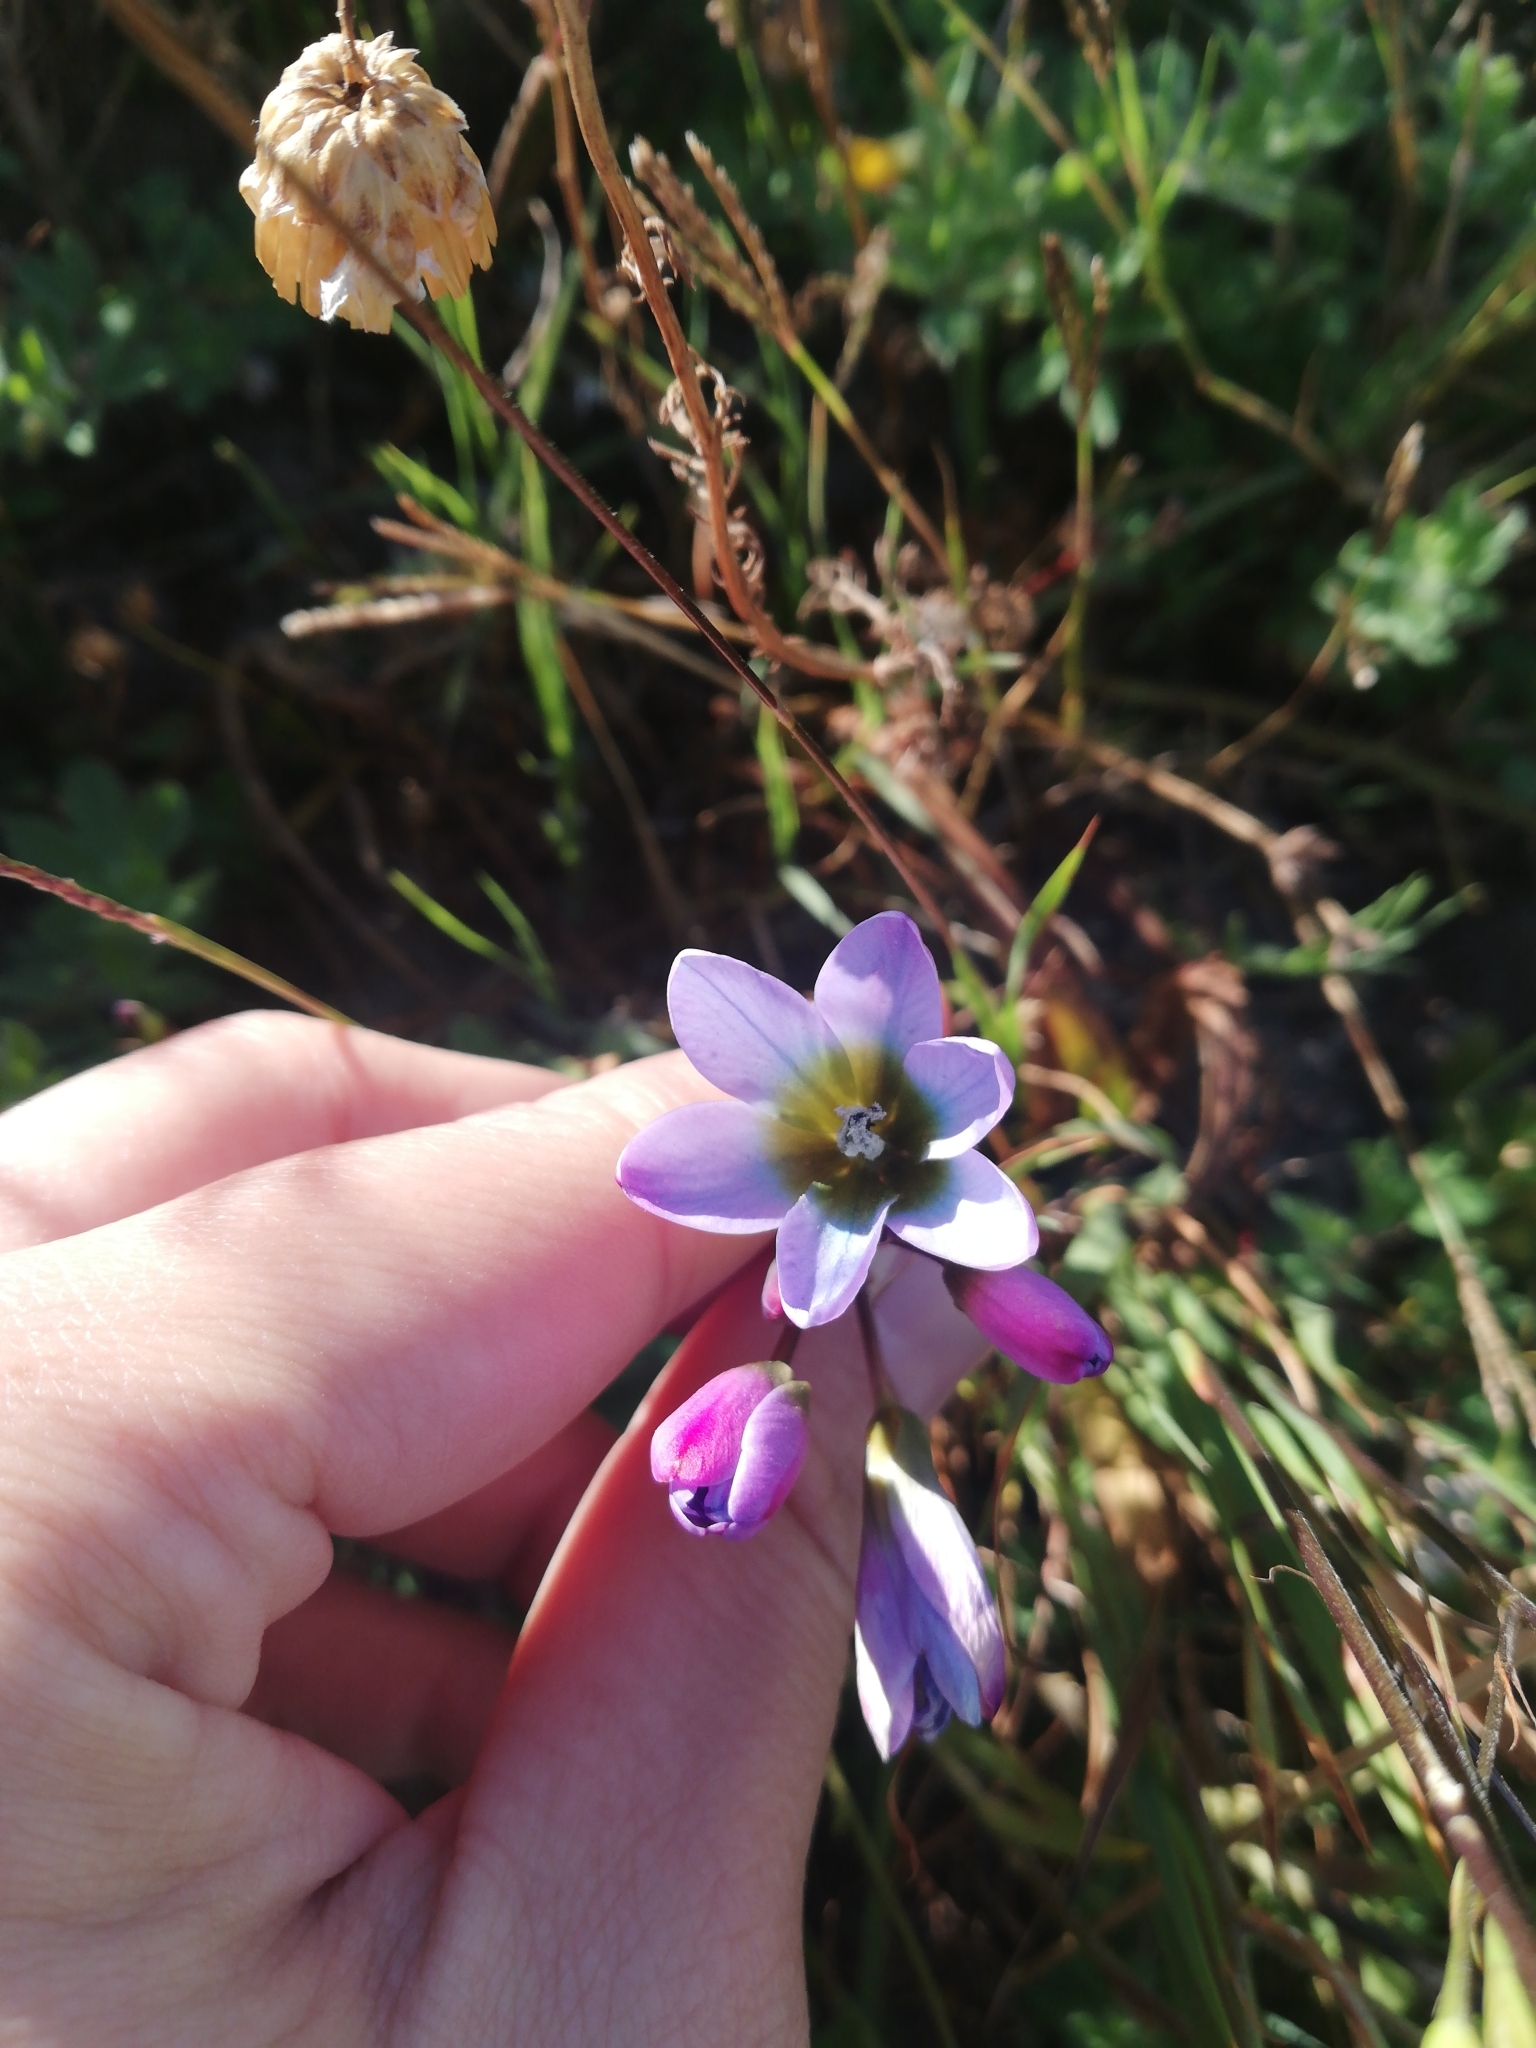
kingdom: Plantae
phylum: Tracheophyta
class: Liliopsida
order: Asparagales
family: Iridaceae
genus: Ixia
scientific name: Ixia monadelpha
